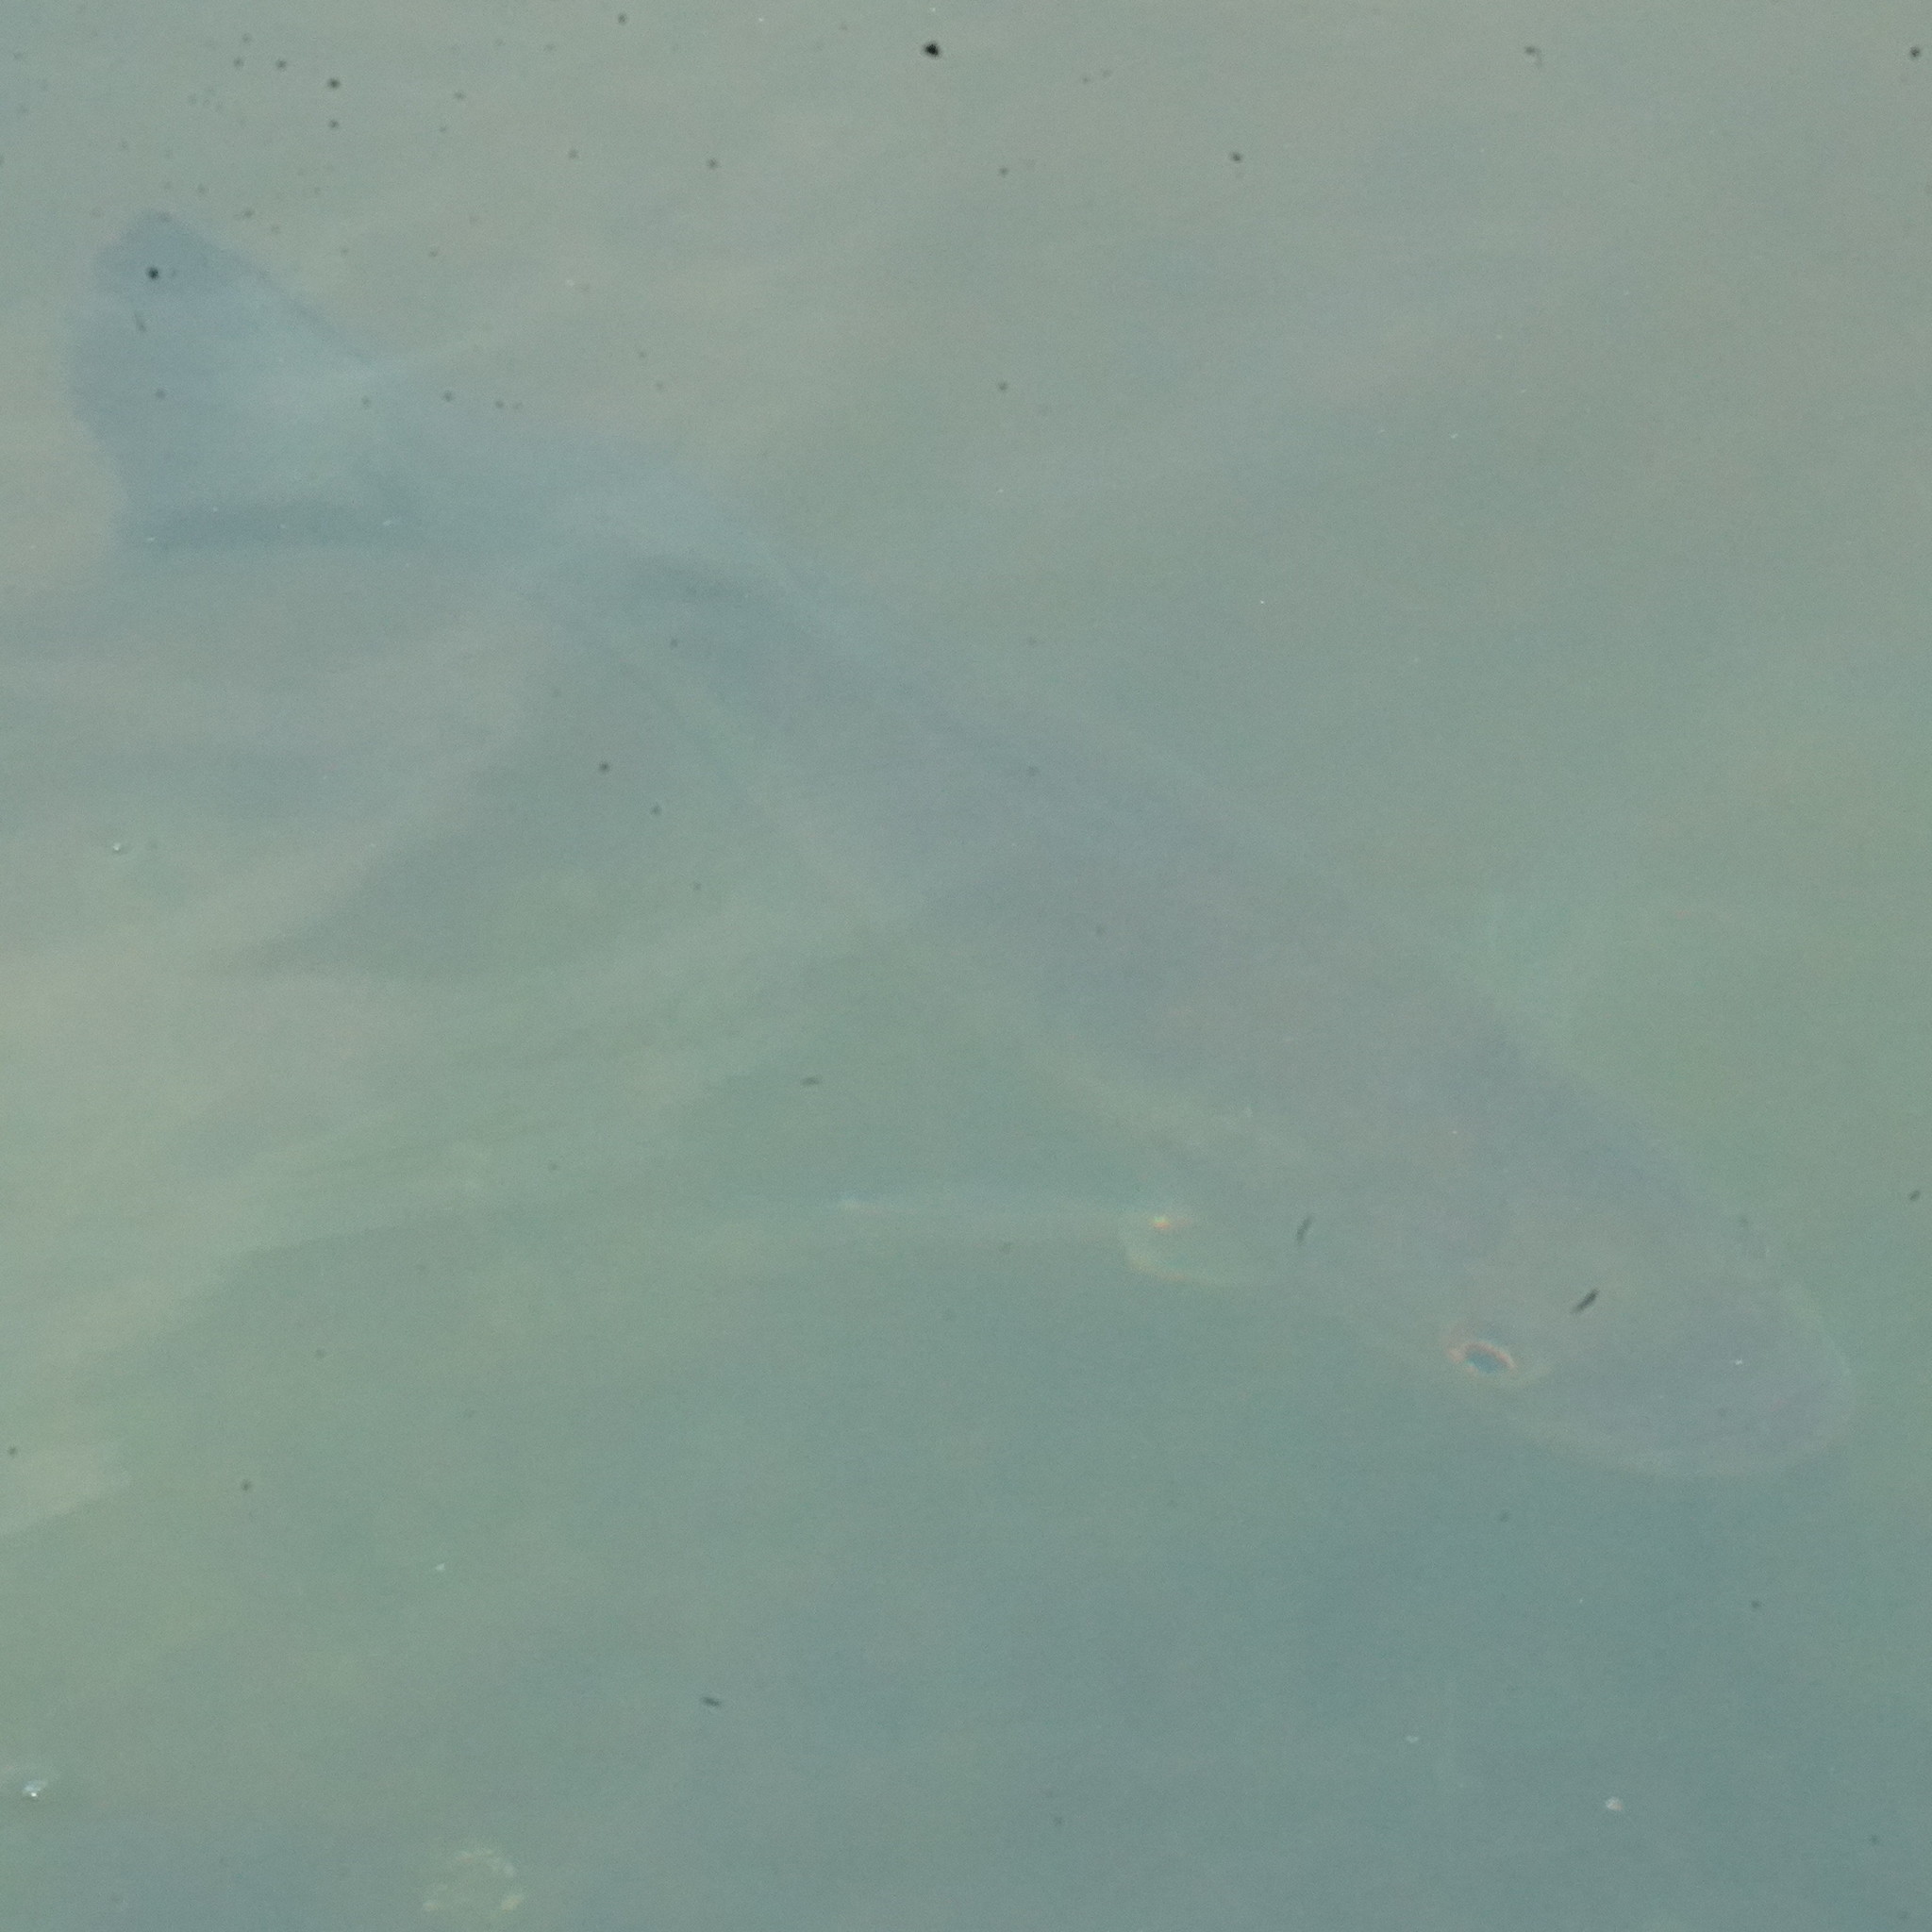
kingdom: Animalia
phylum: Chordata
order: Perciformes
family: Centrarchidae
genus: Micropterus
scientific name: Micropterus
